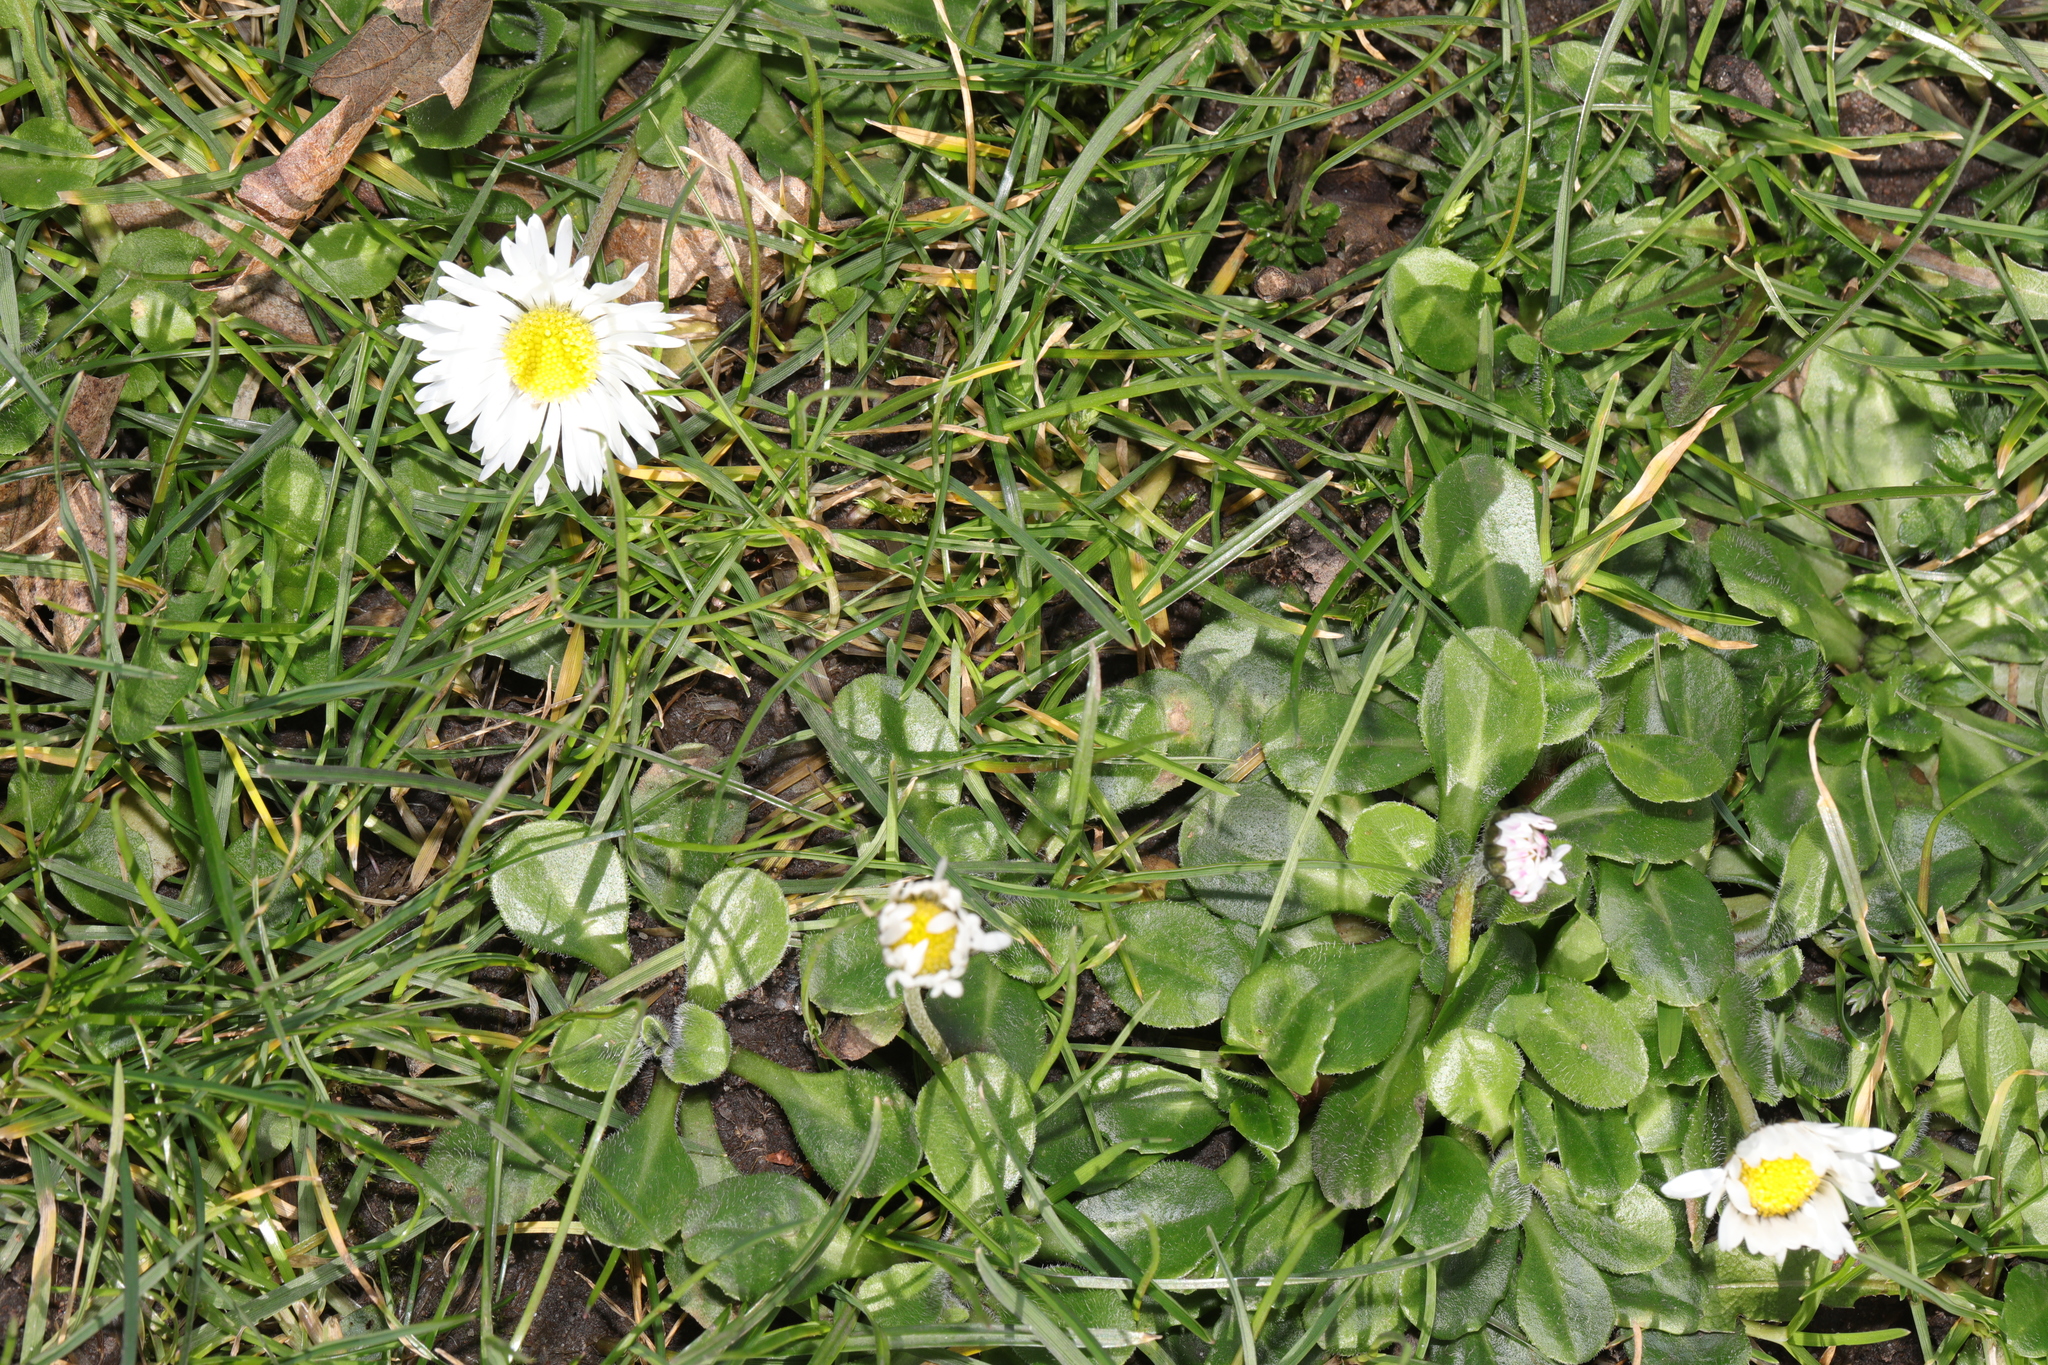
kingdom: Plantae
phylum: Tracheophyta
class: Magnoliopsida
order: Asterales
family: Asteraceae
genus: Bellis
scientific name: Bellis perennis
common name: Lawndaisy
